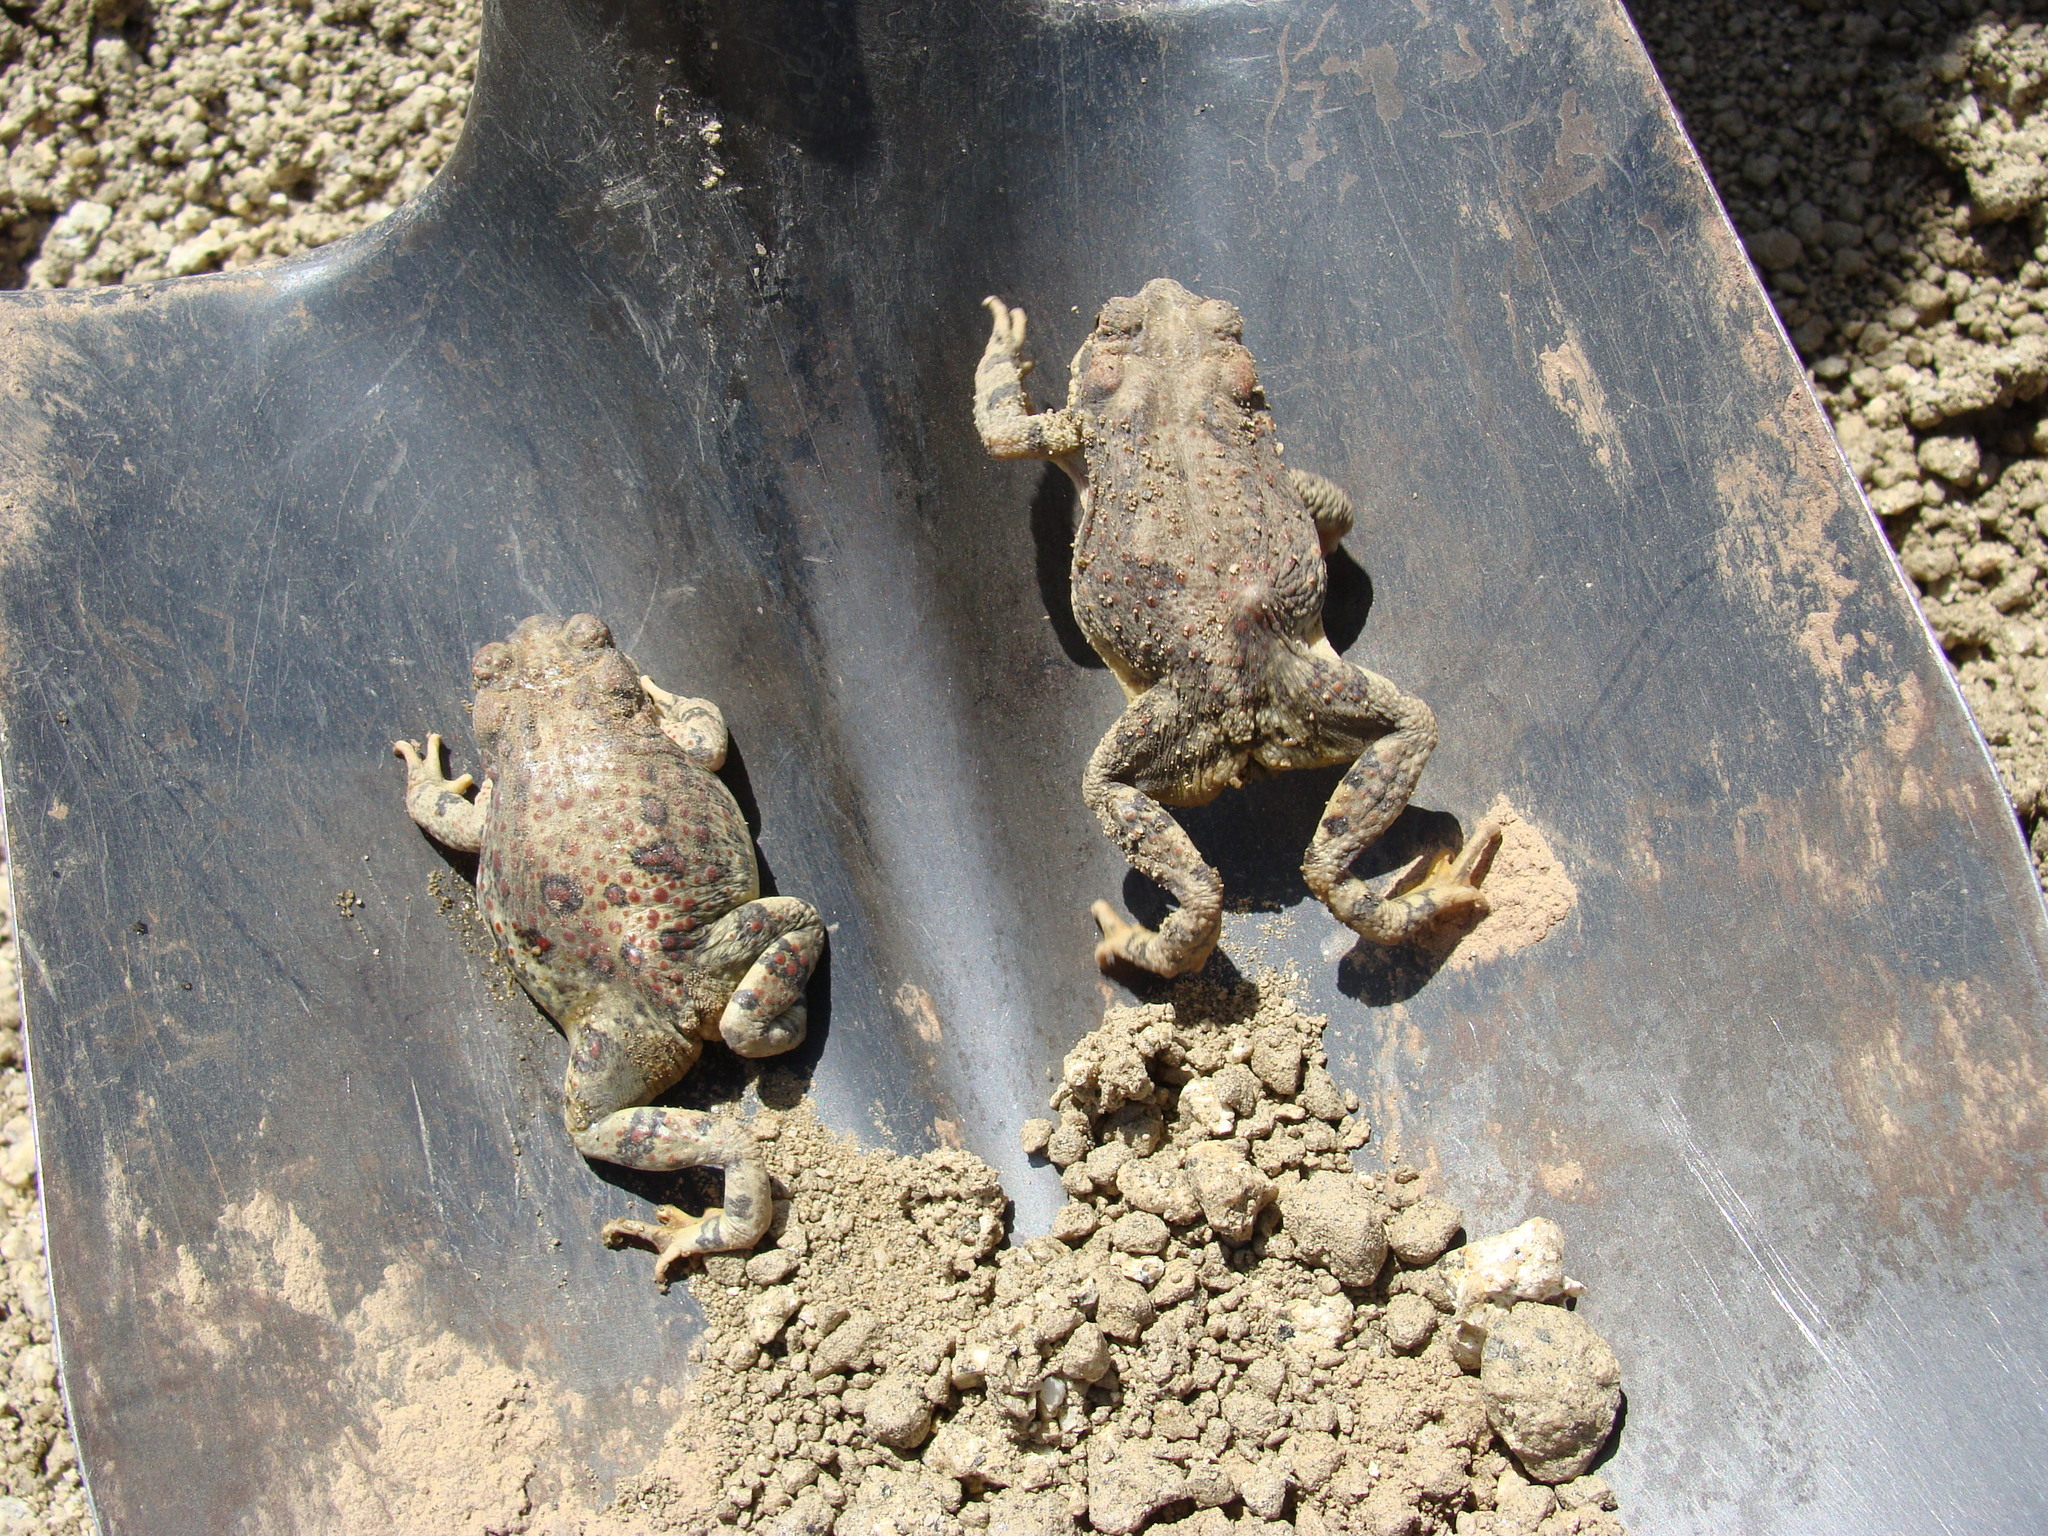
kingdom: Animalia
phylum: Chordata
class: Amphibia
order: Anura
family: Bufonidae
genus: Anaxyrus
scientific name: Anaxyrus punctatus
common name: Red-spotted toad
